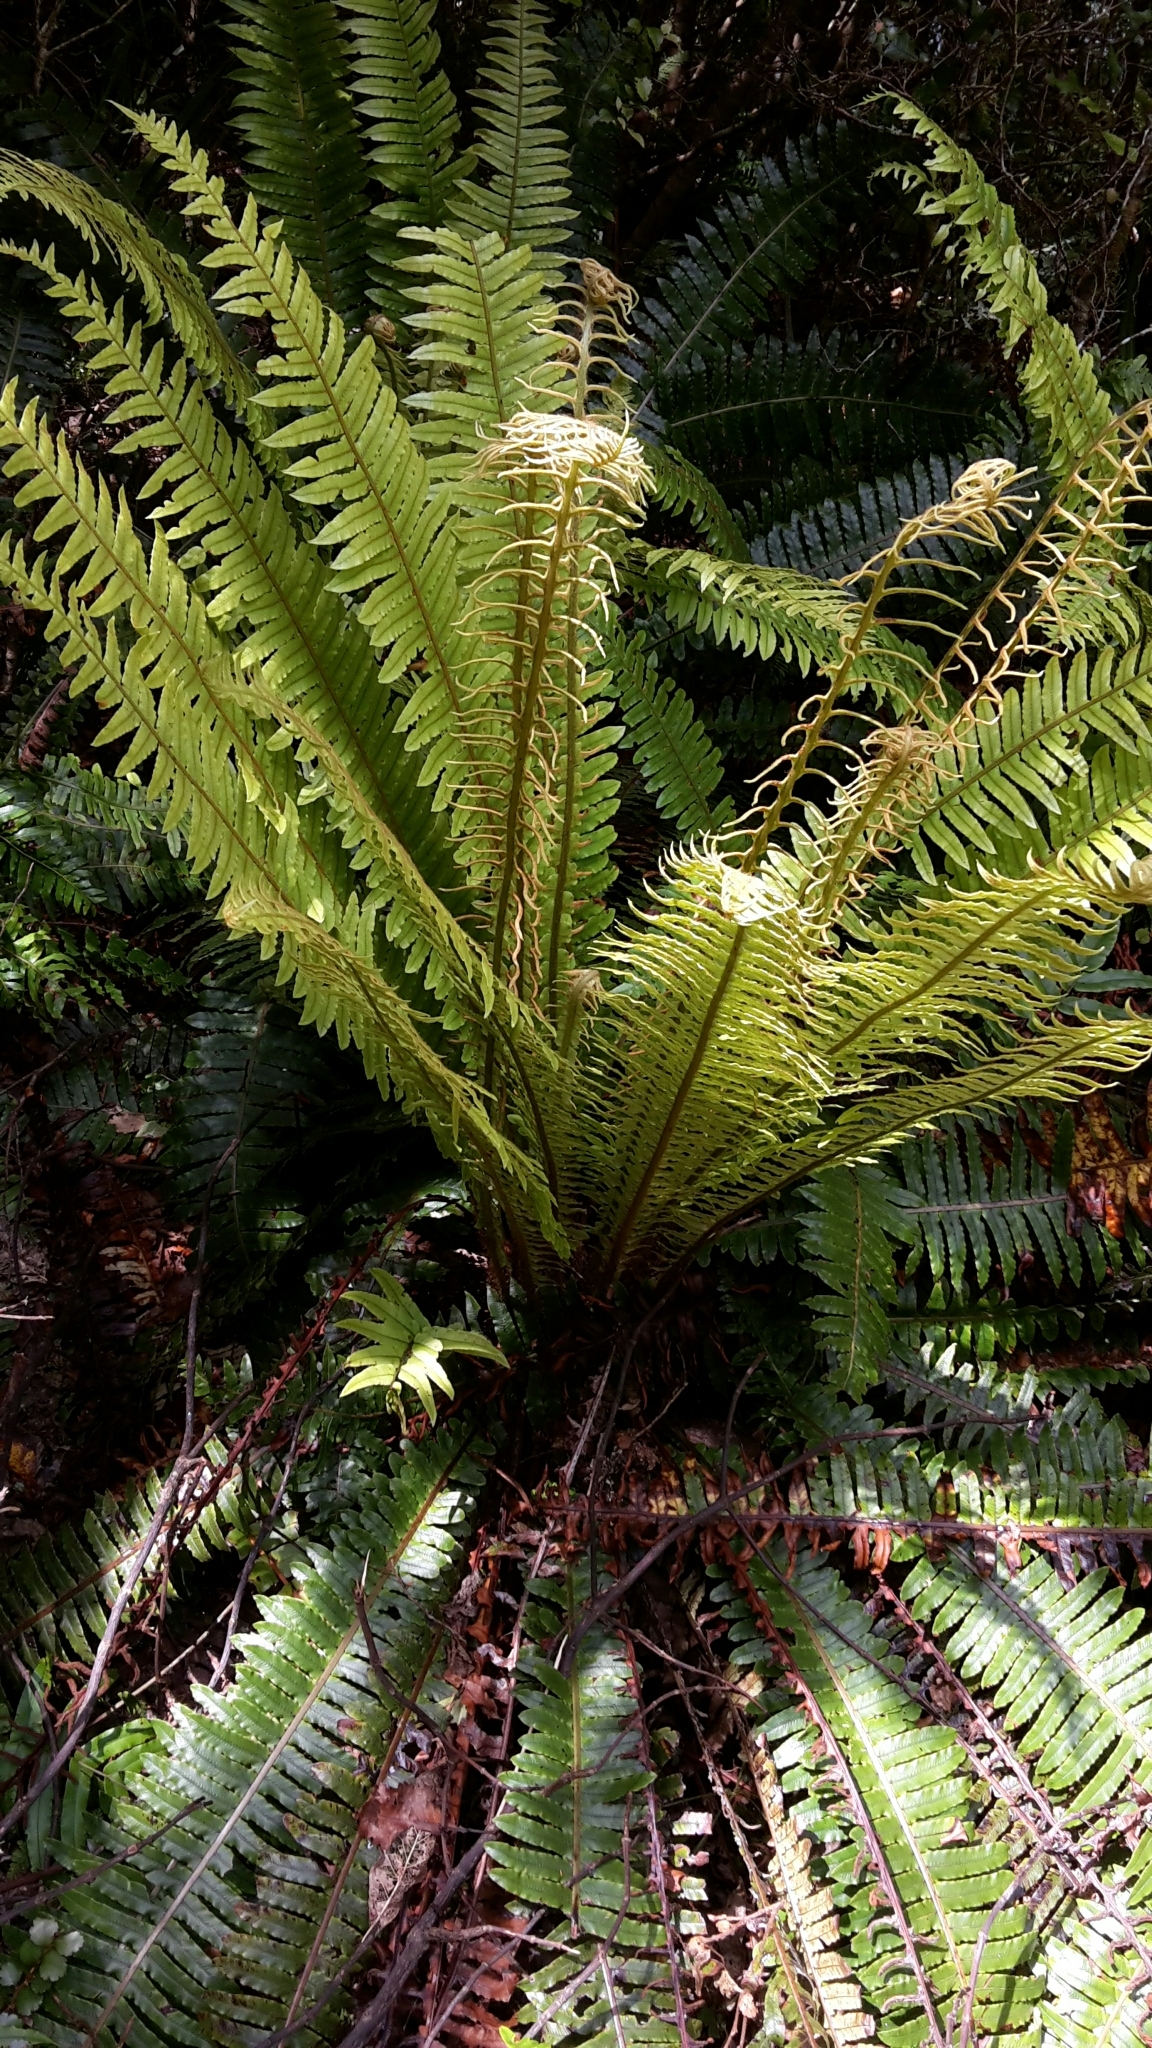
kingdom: Plantae
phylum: Tracheophyta
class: Polypodiopsida
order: Polypodiales
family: Blechnaceae
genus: Lomaria
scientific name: Lomaria discolor
